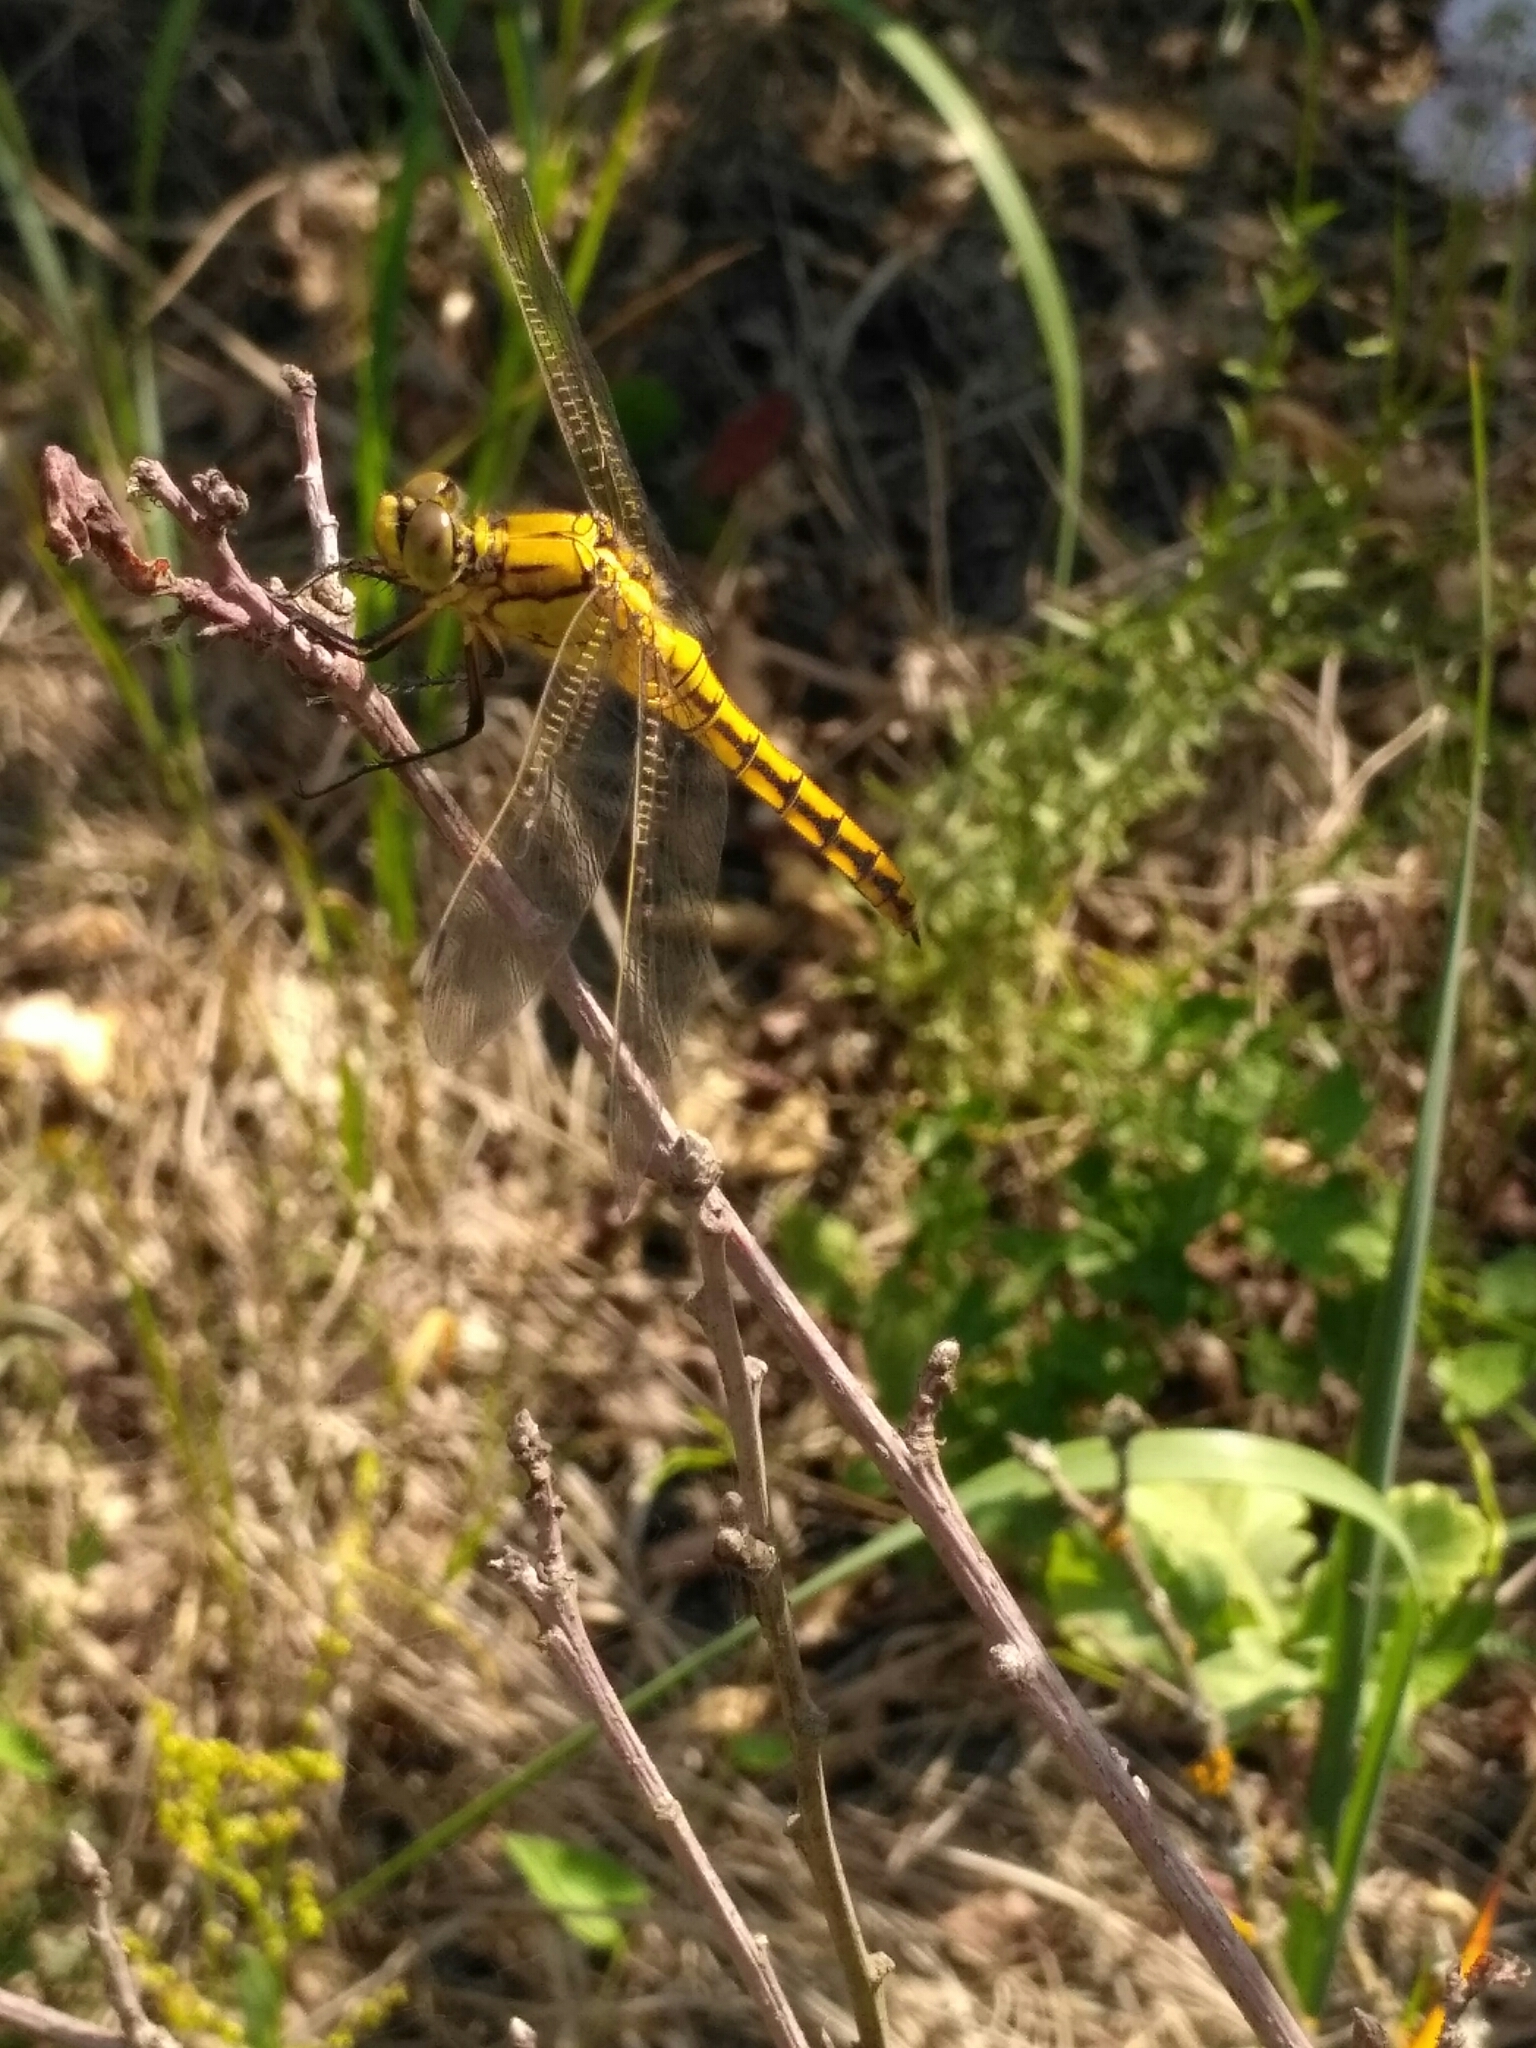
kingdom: Animalia
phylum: Arthropoda
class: Insecta
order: Odonata
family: Libellulidae
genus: Orthetrum
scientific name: Orthetrum cancellatum
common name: Black-tailed skimmer
